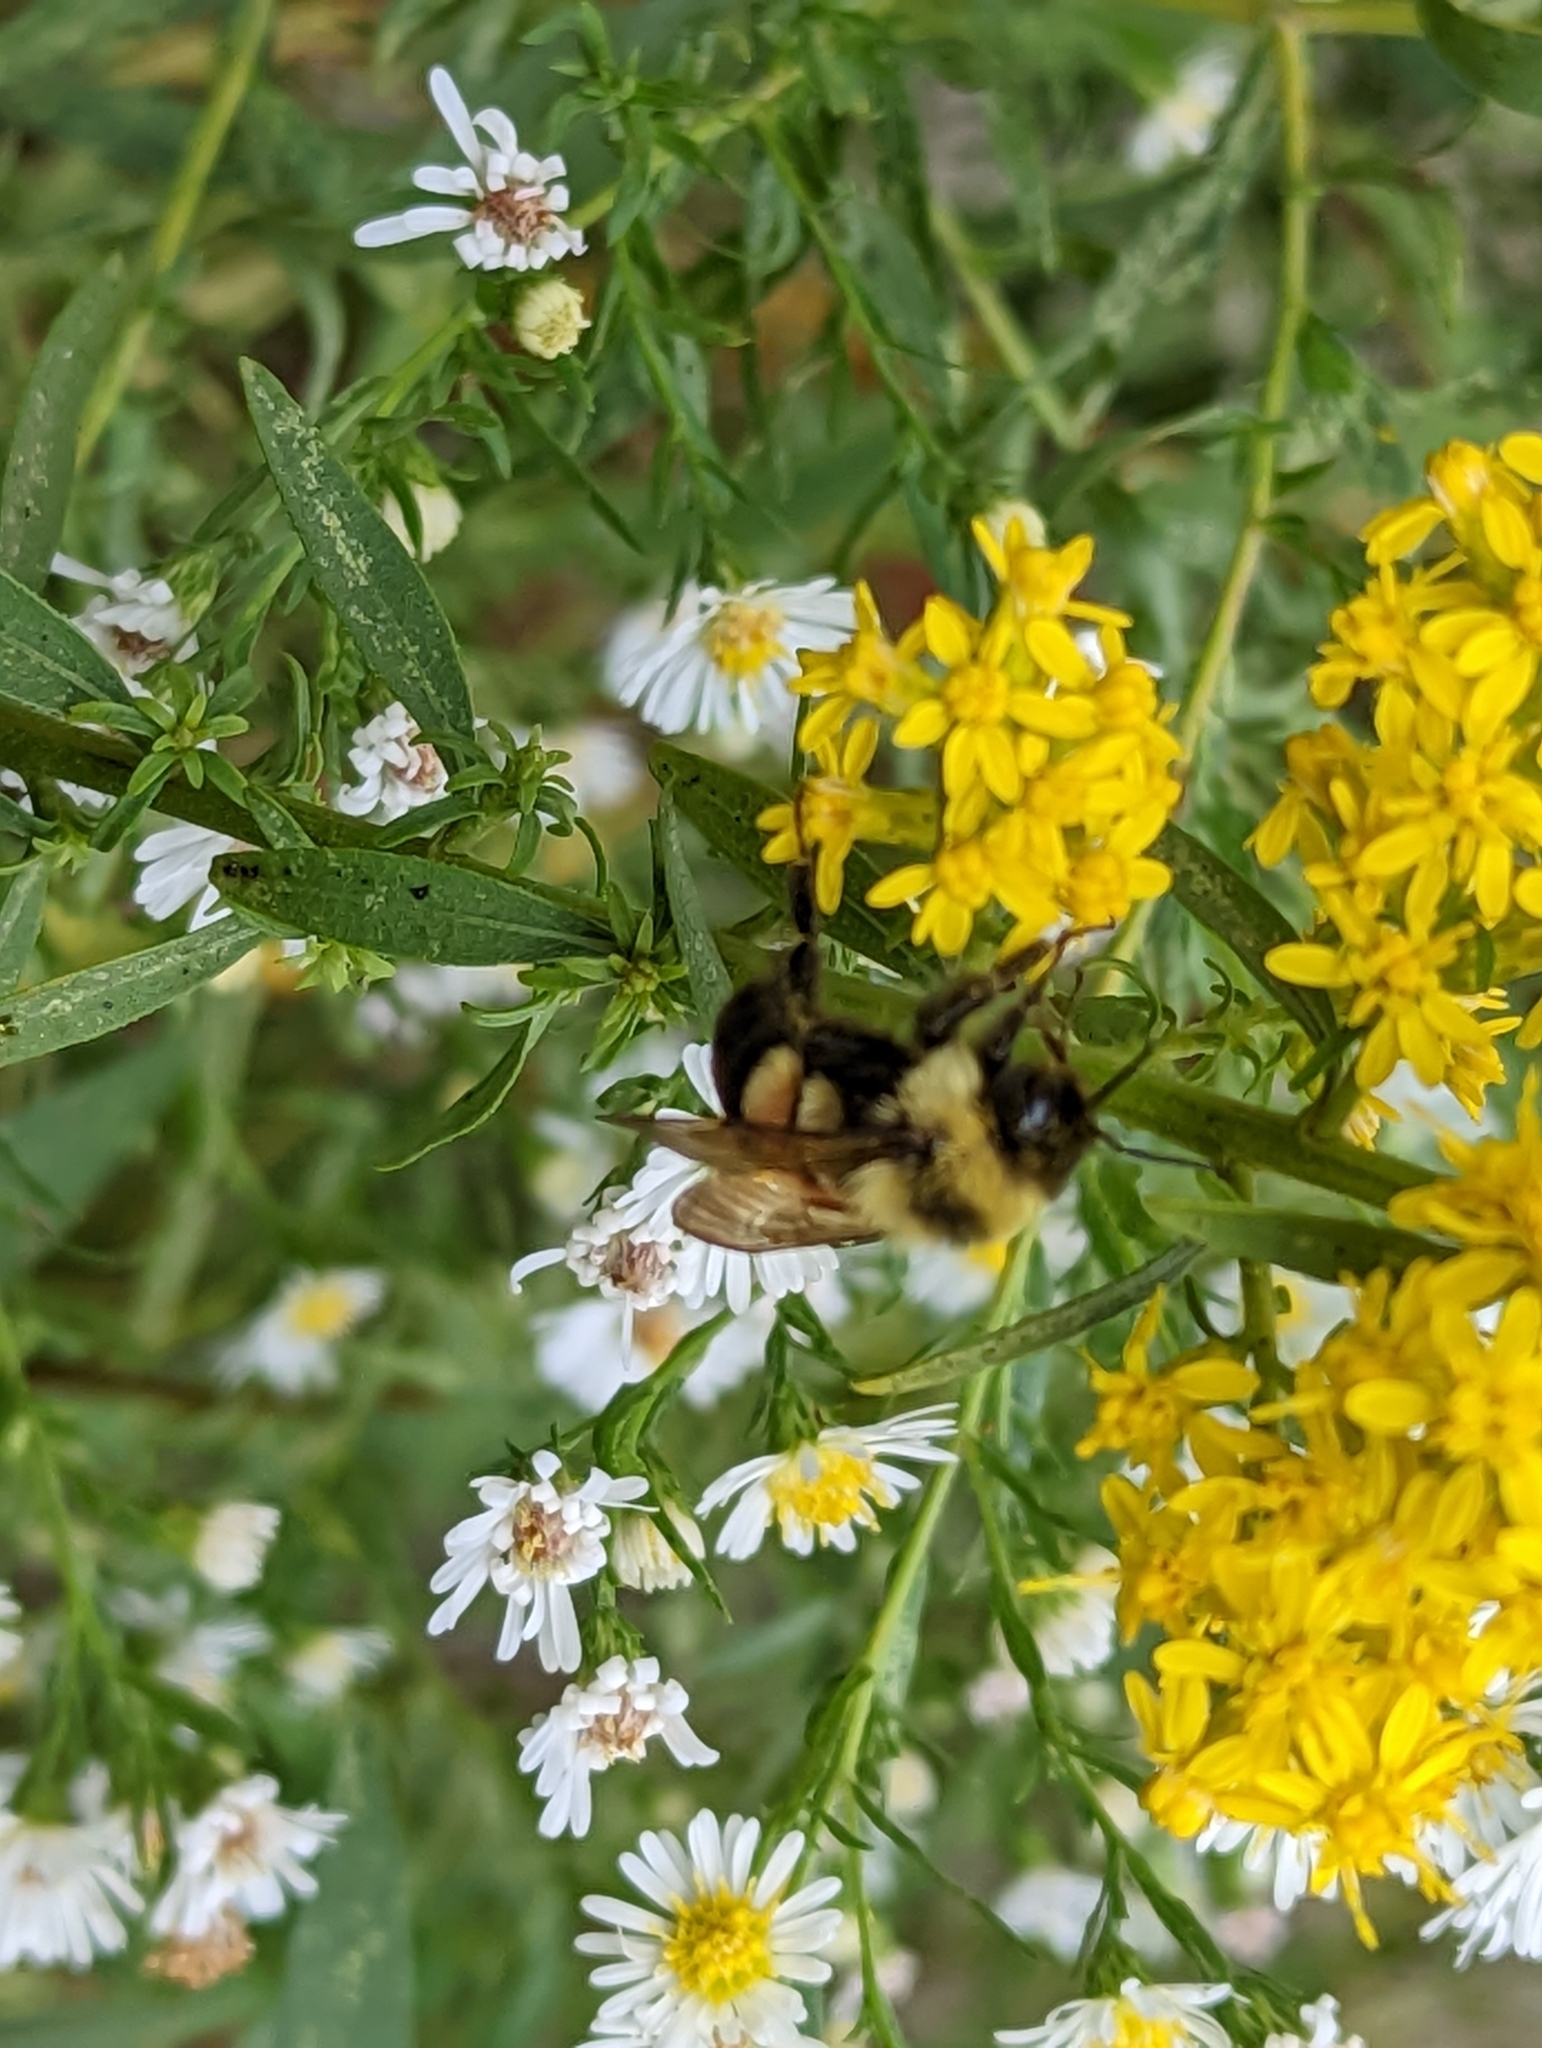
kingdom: Animalia
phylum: Arthropoda
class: Insecta
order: Hymenoptera
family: Apidae
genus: Bombus
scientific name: Bombus affinis
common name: Rusty patched bumble bee
